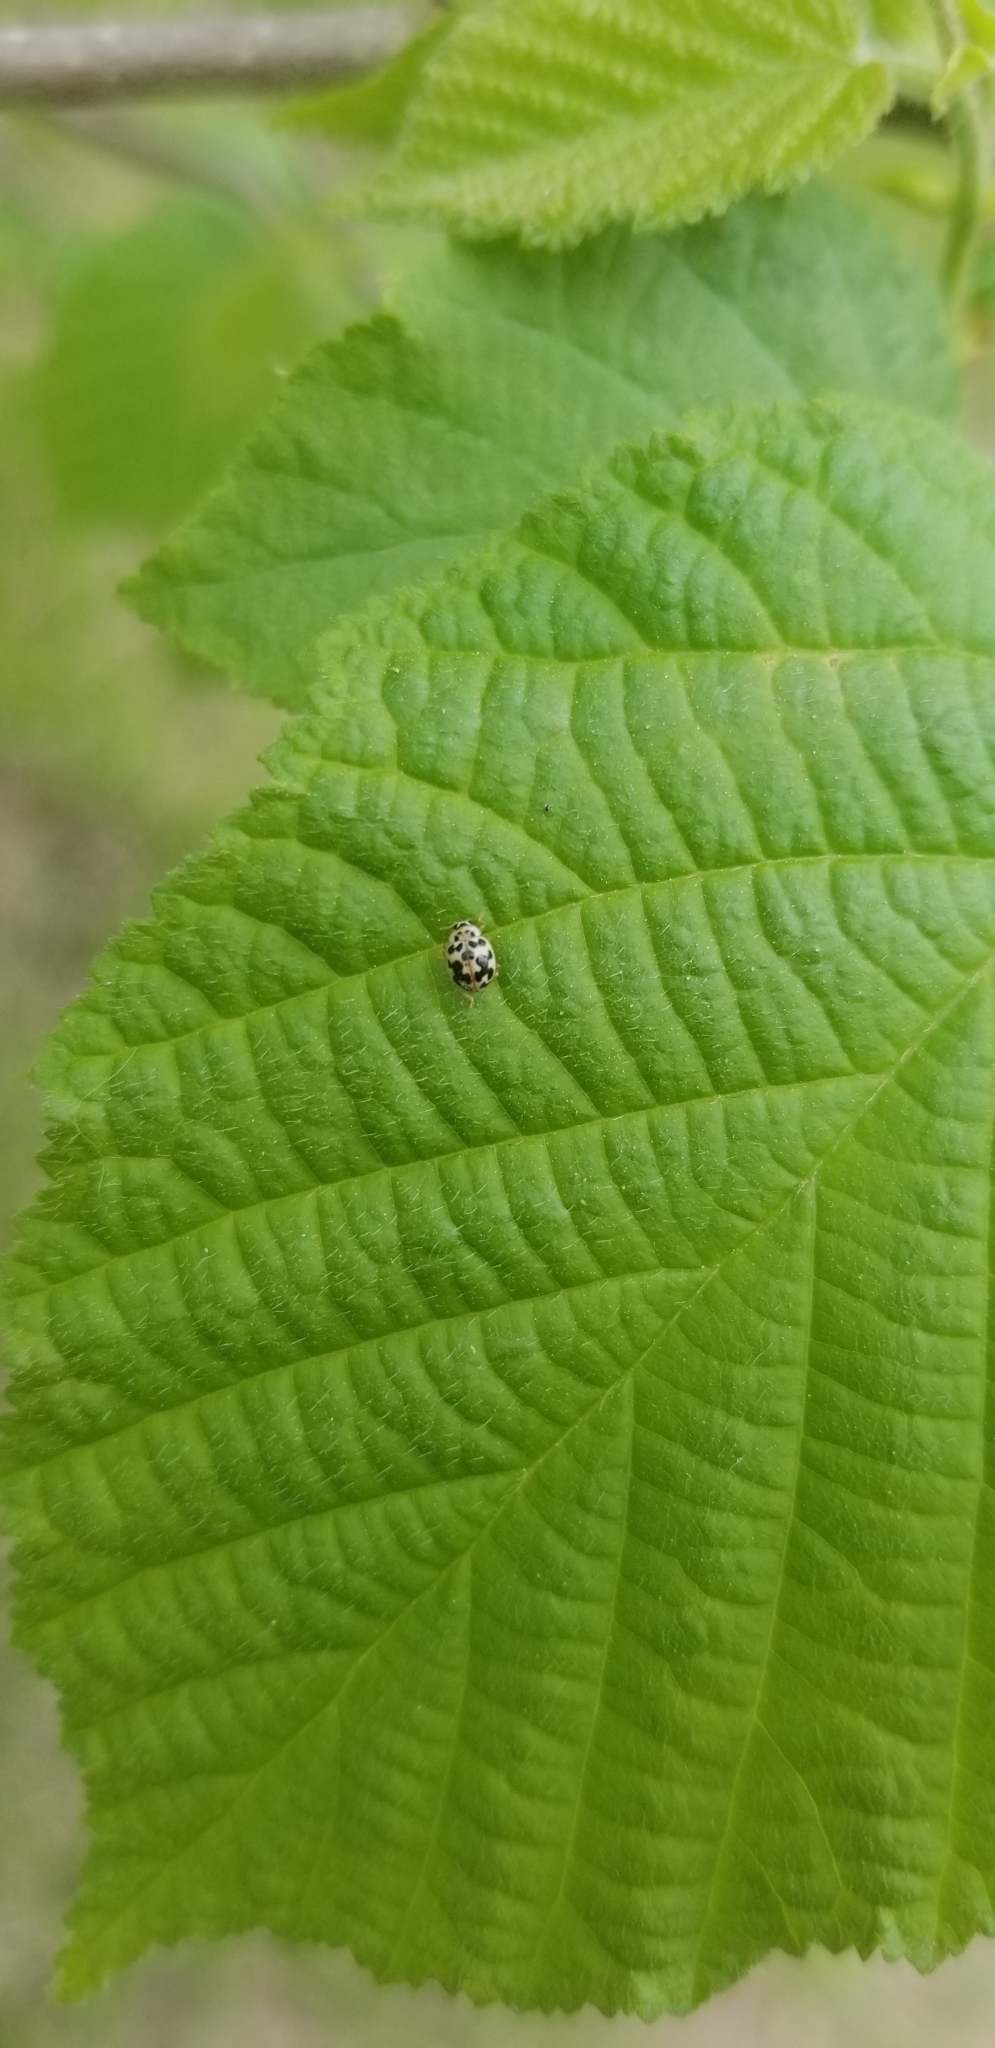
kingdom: Animalia
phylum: Arthropoda
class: Insecta
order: Coleoptera
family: Coccinellidae
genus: Psyllobora
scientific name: Psyllobora vigintimaculata
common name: Ladybird beetle
